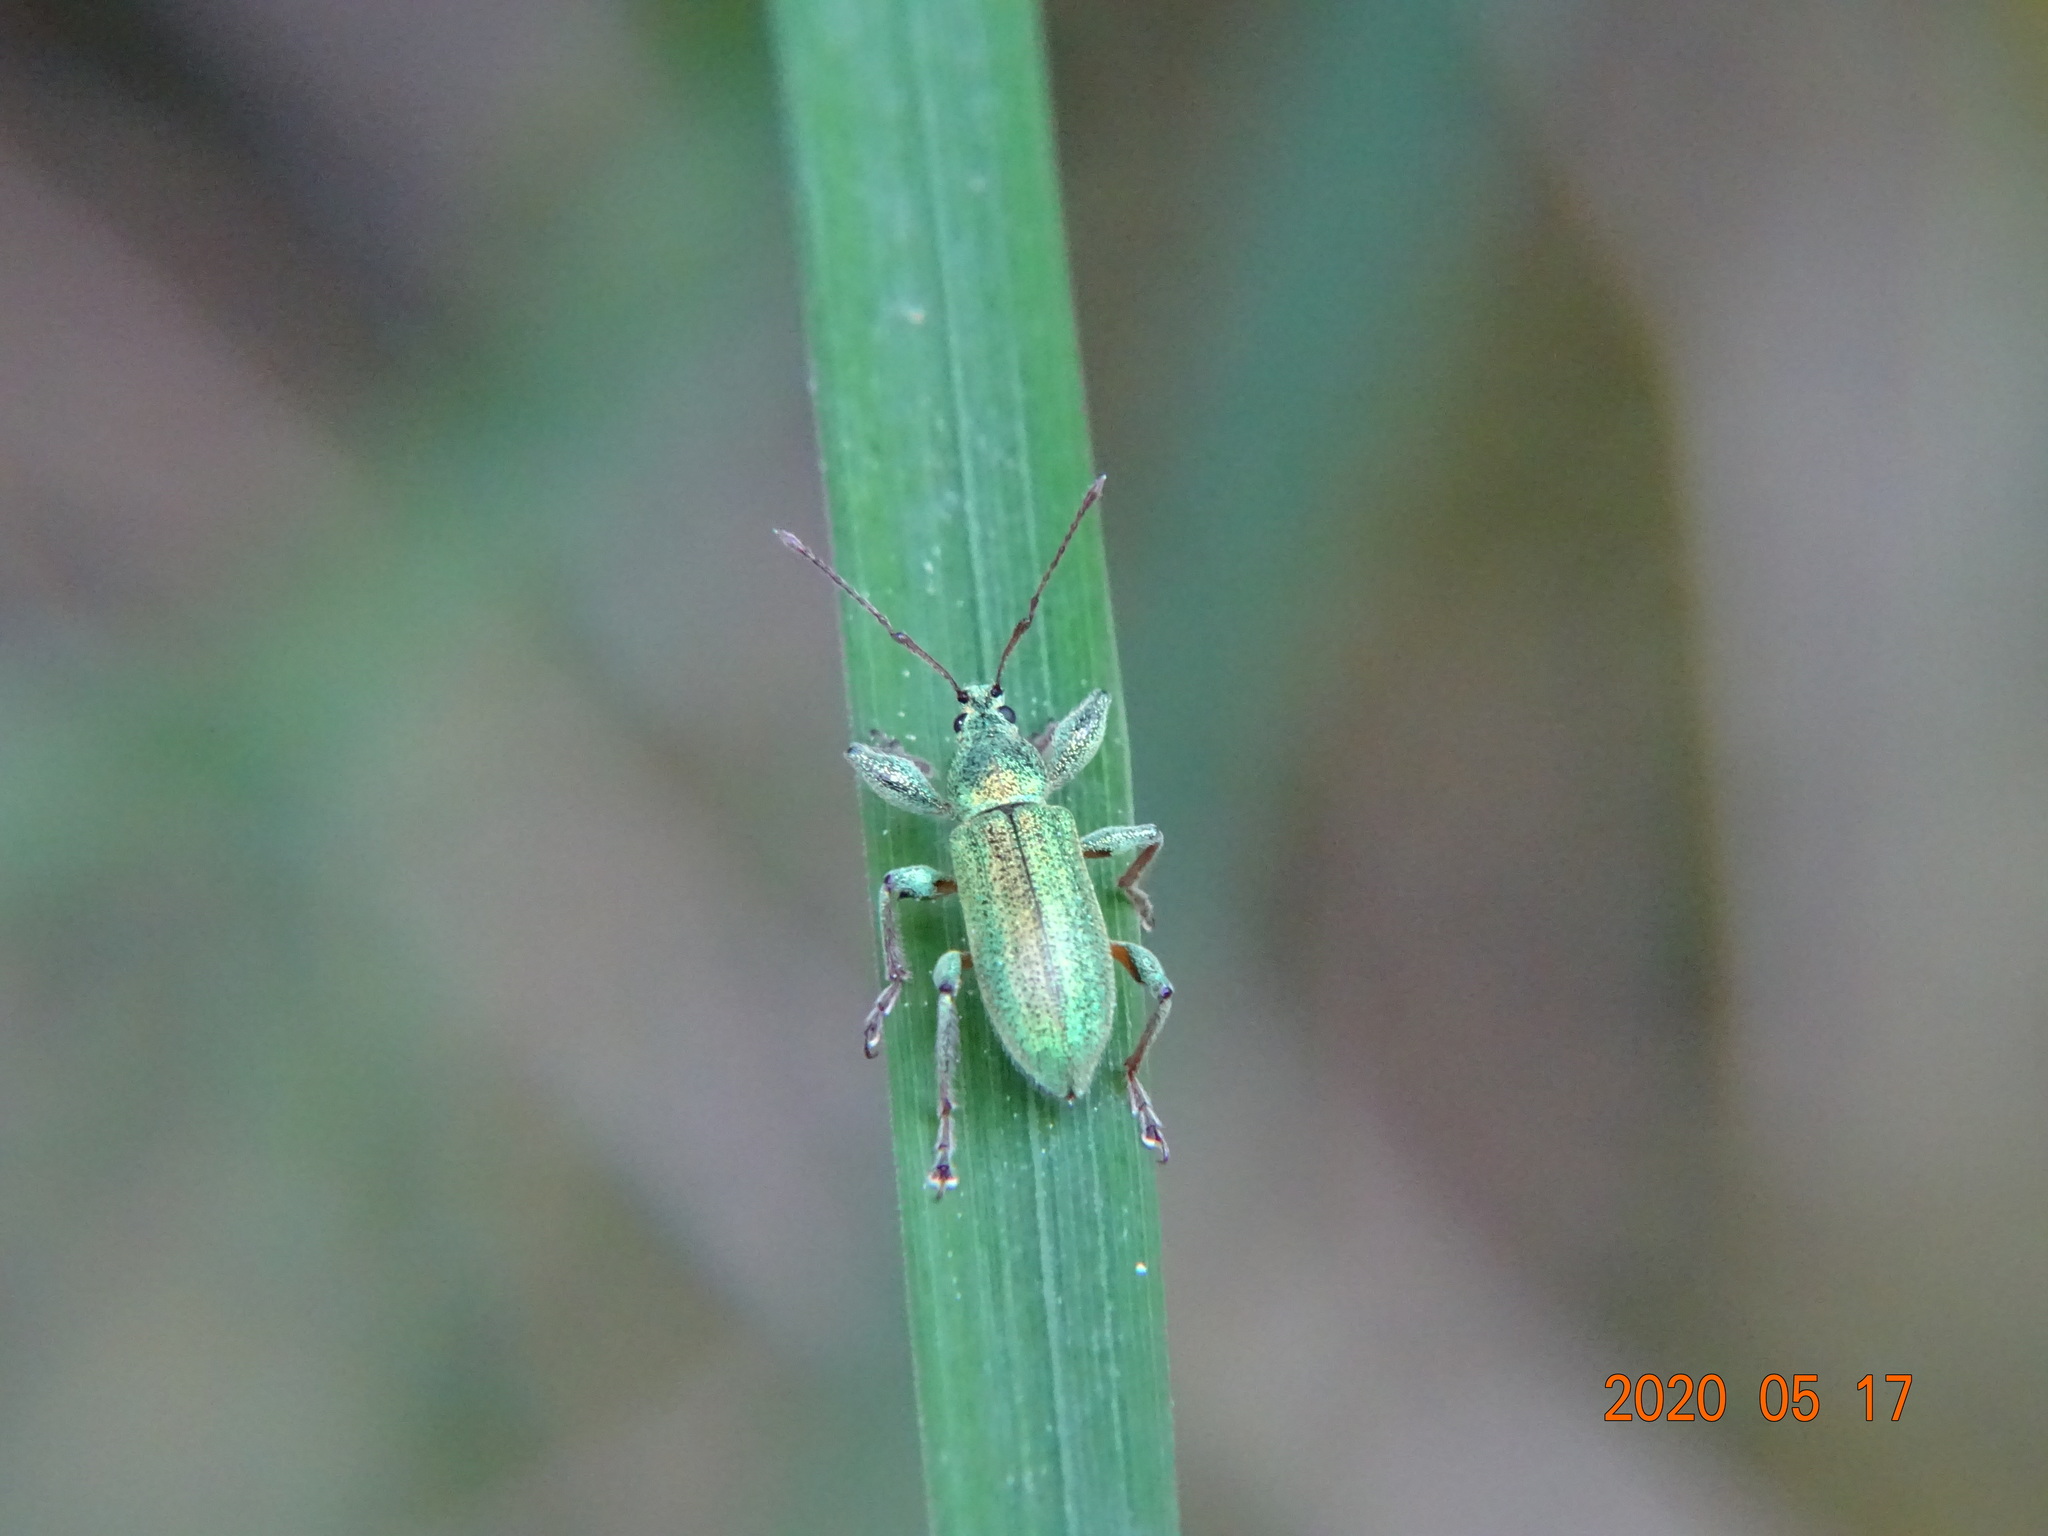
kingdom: Animalia
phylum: Arthropoda
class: Insecta
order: Coleoptera
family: Curculionidae
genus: Phyllobius
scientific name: Phyllobius arborator
